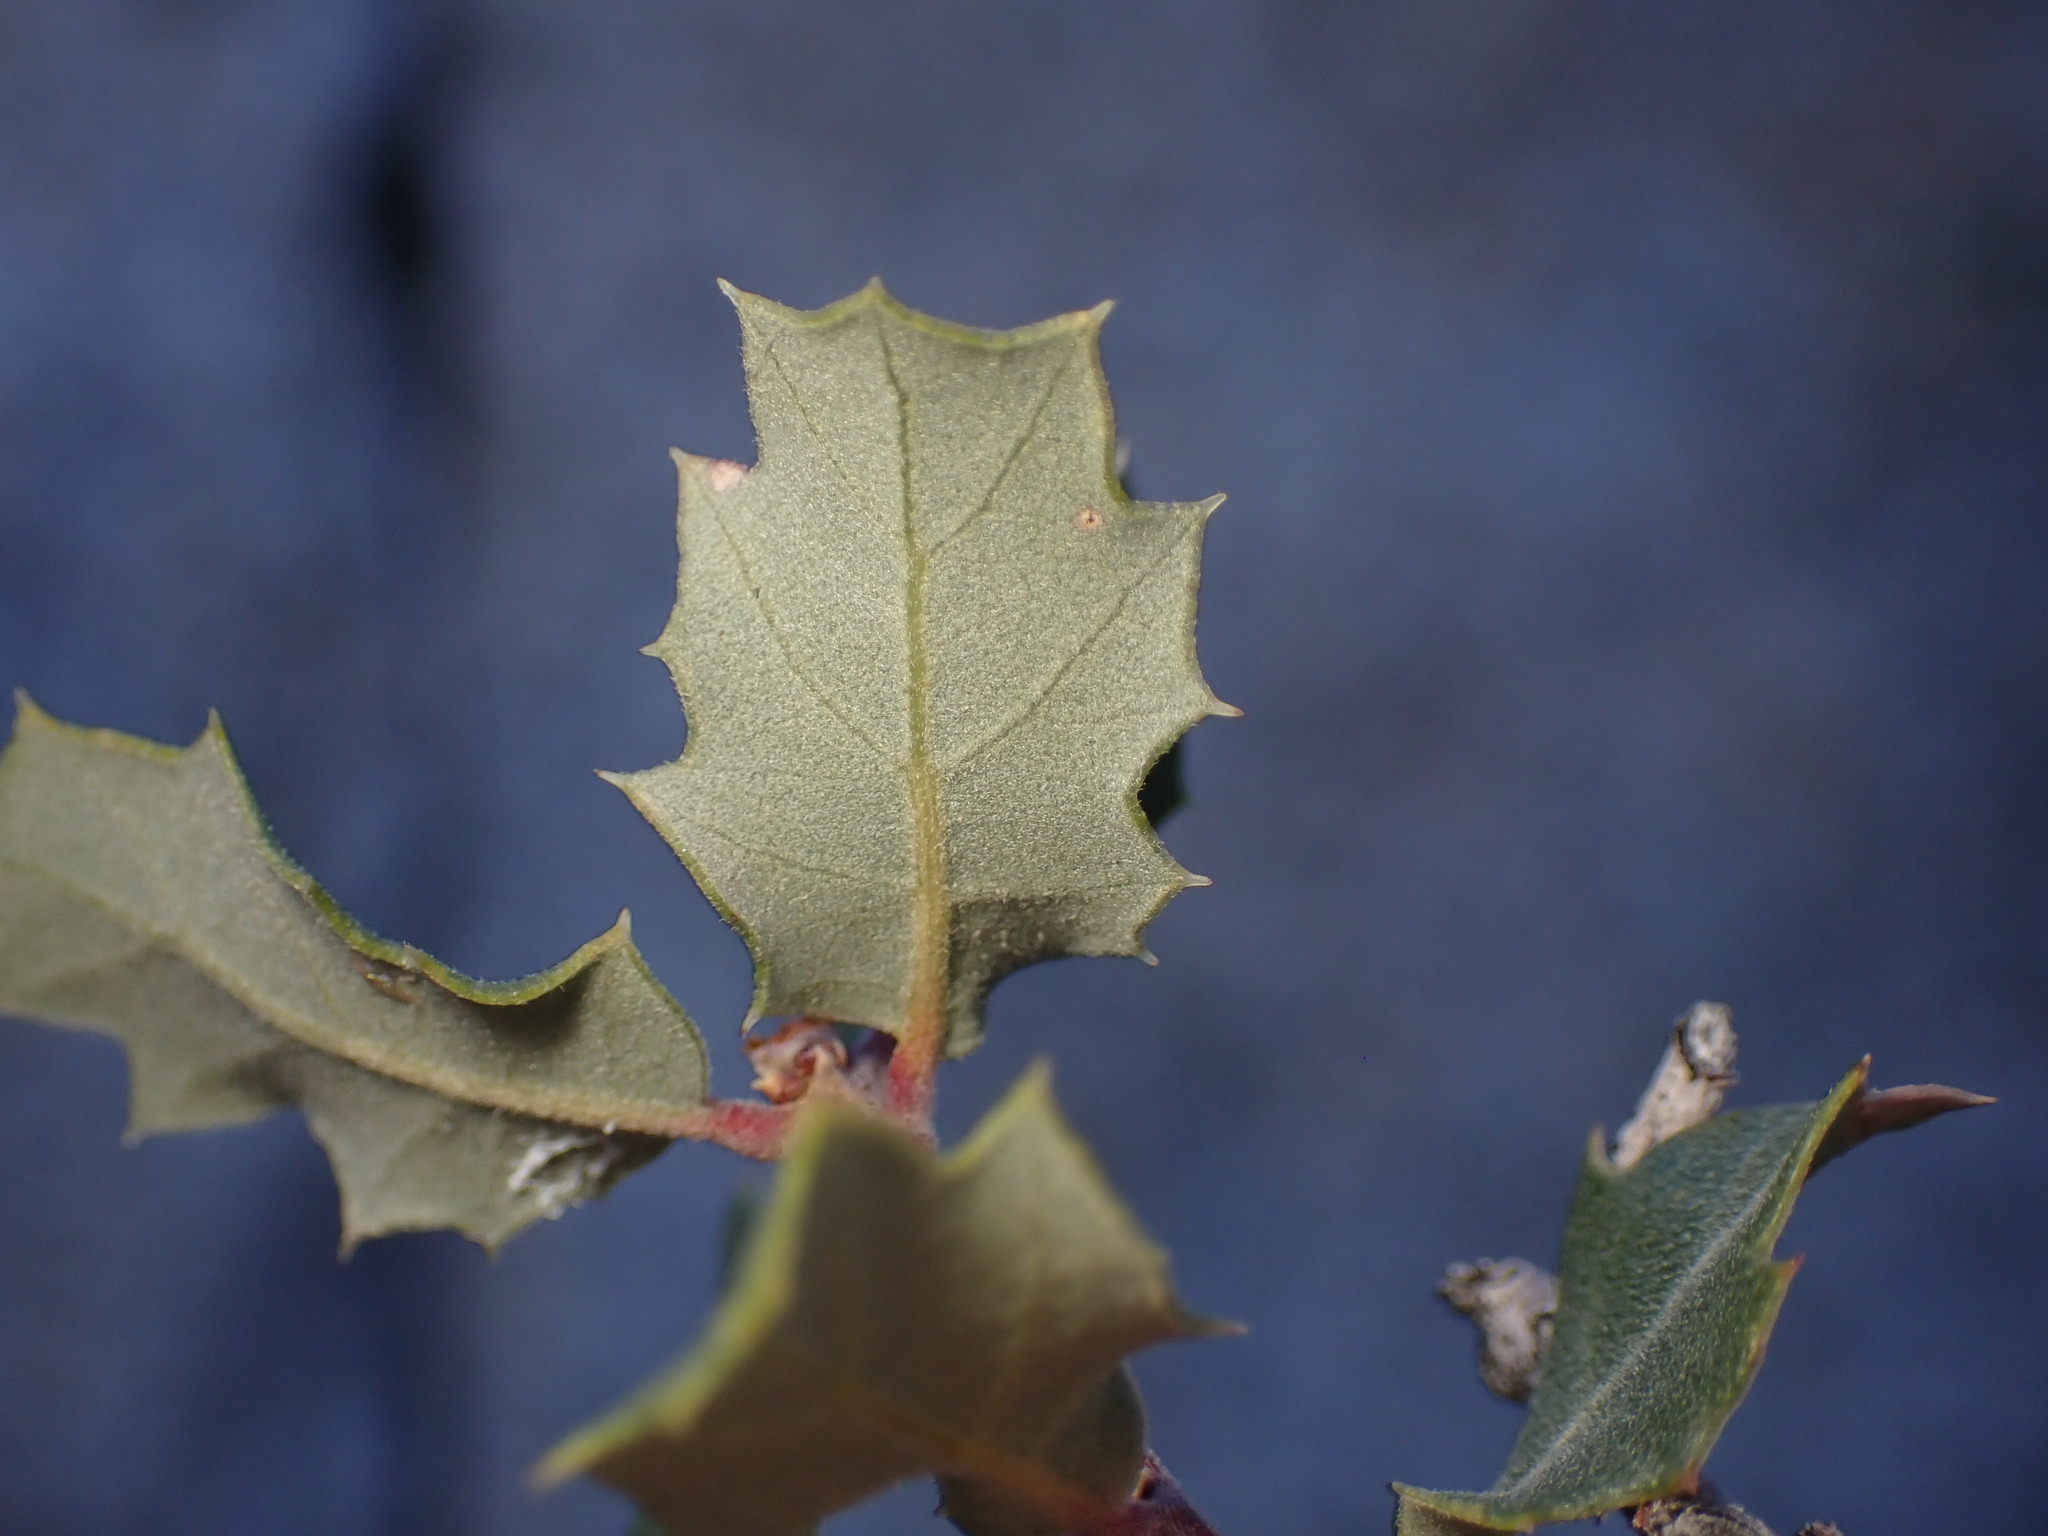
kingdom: Plantae
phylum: Tracheophyta
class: Magnoliopsida
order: Fagales
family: Fagaceae
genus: Quercus
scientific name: Quercus cornelius-mulleri
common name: Muller oak
